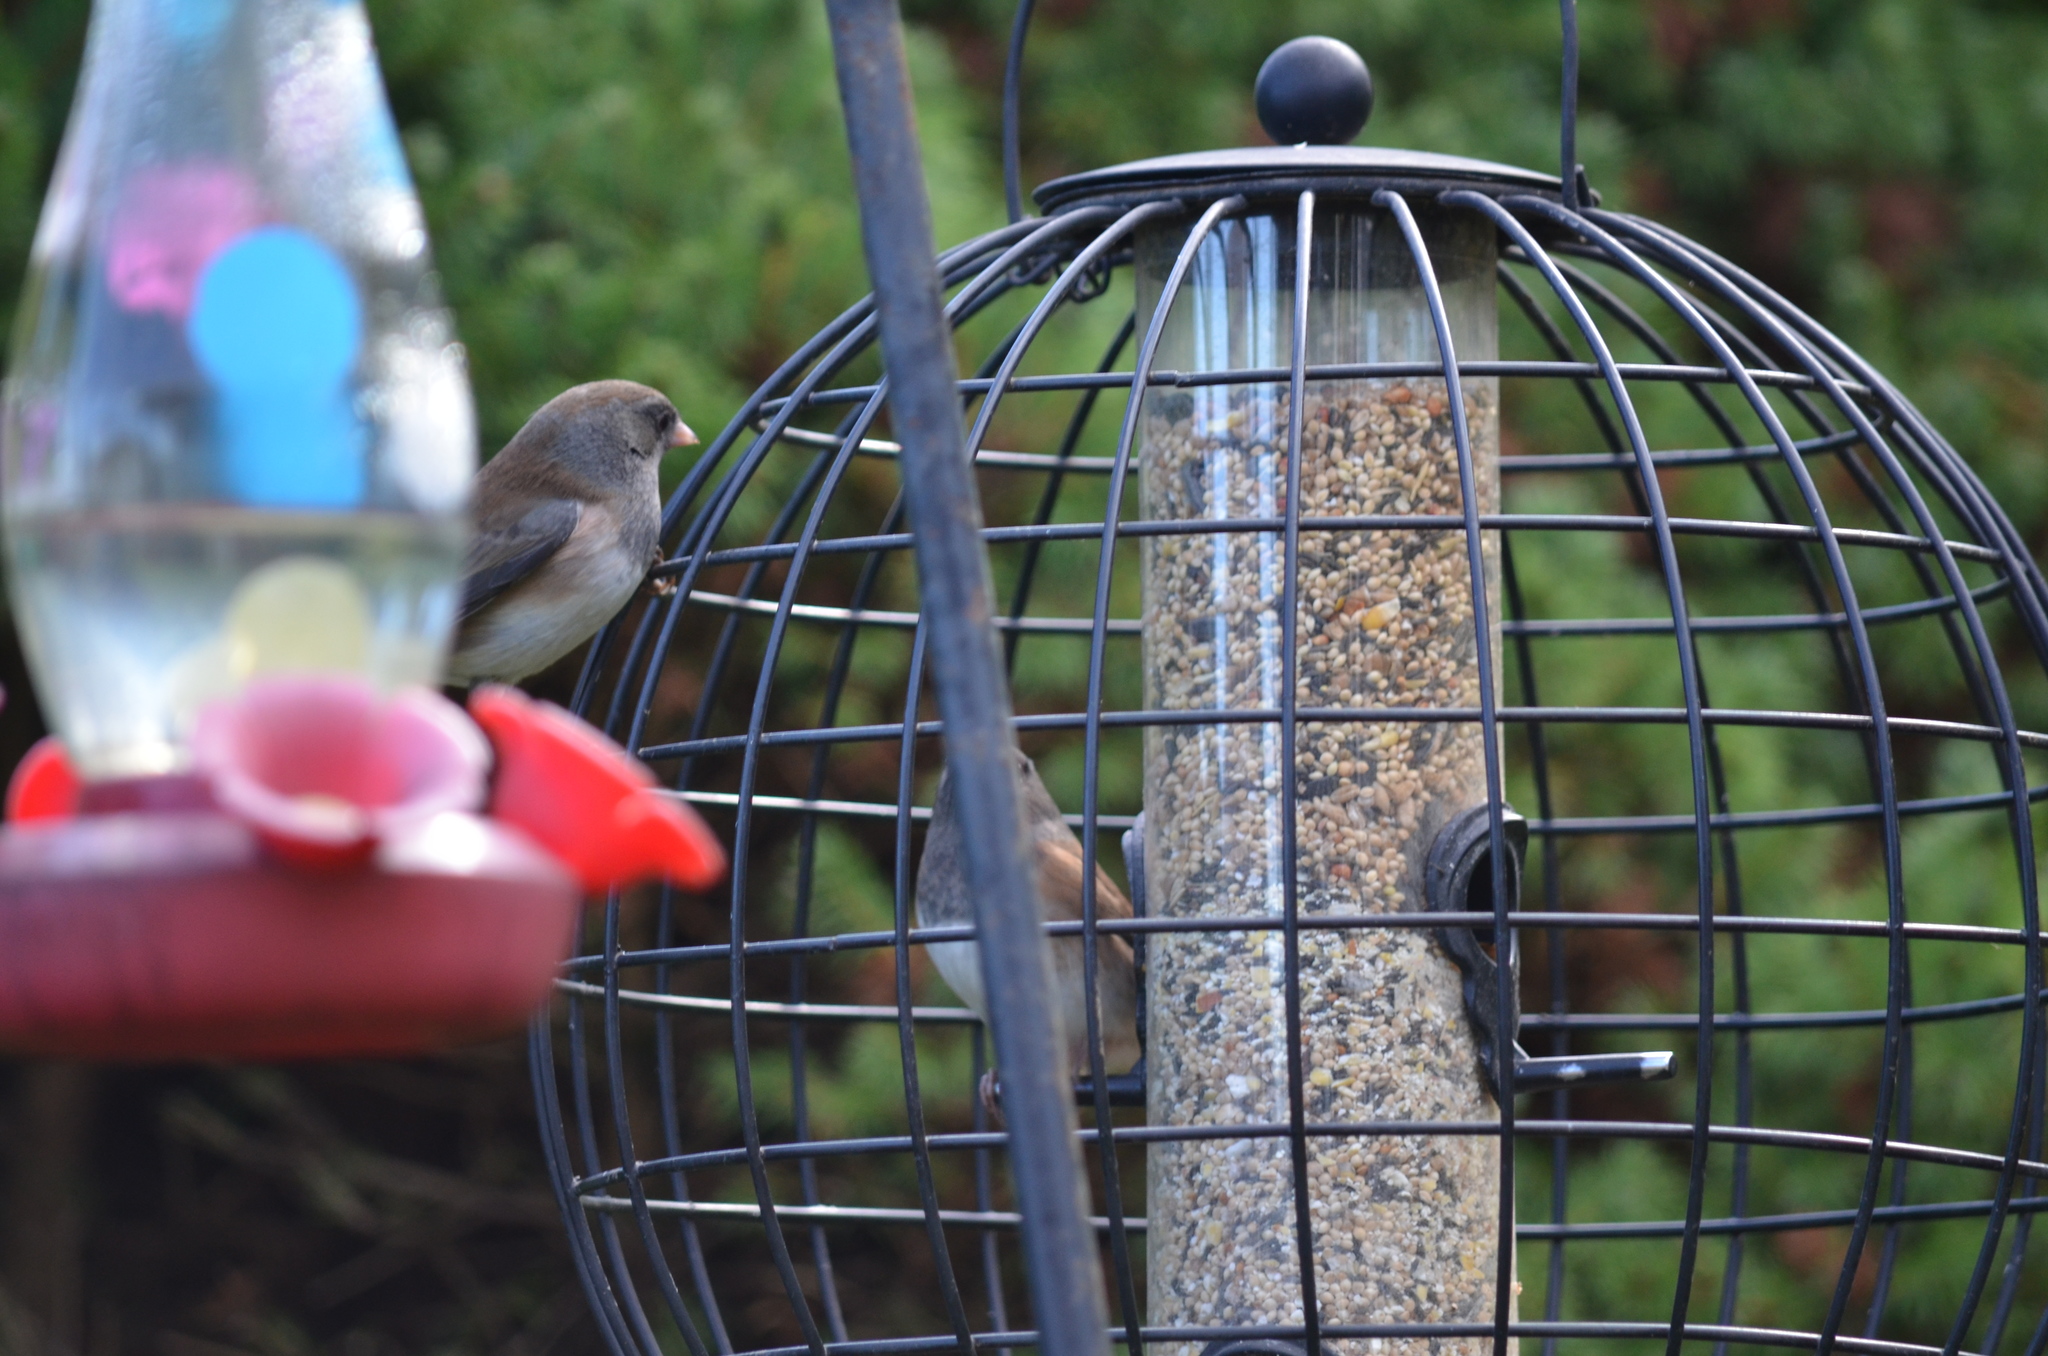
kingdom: Animalia
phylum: Chordata
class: Aves
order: Passeriformes
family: Passerellidae
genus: Junco
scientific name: Junco hyemalis
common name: Dark-eyed junco
